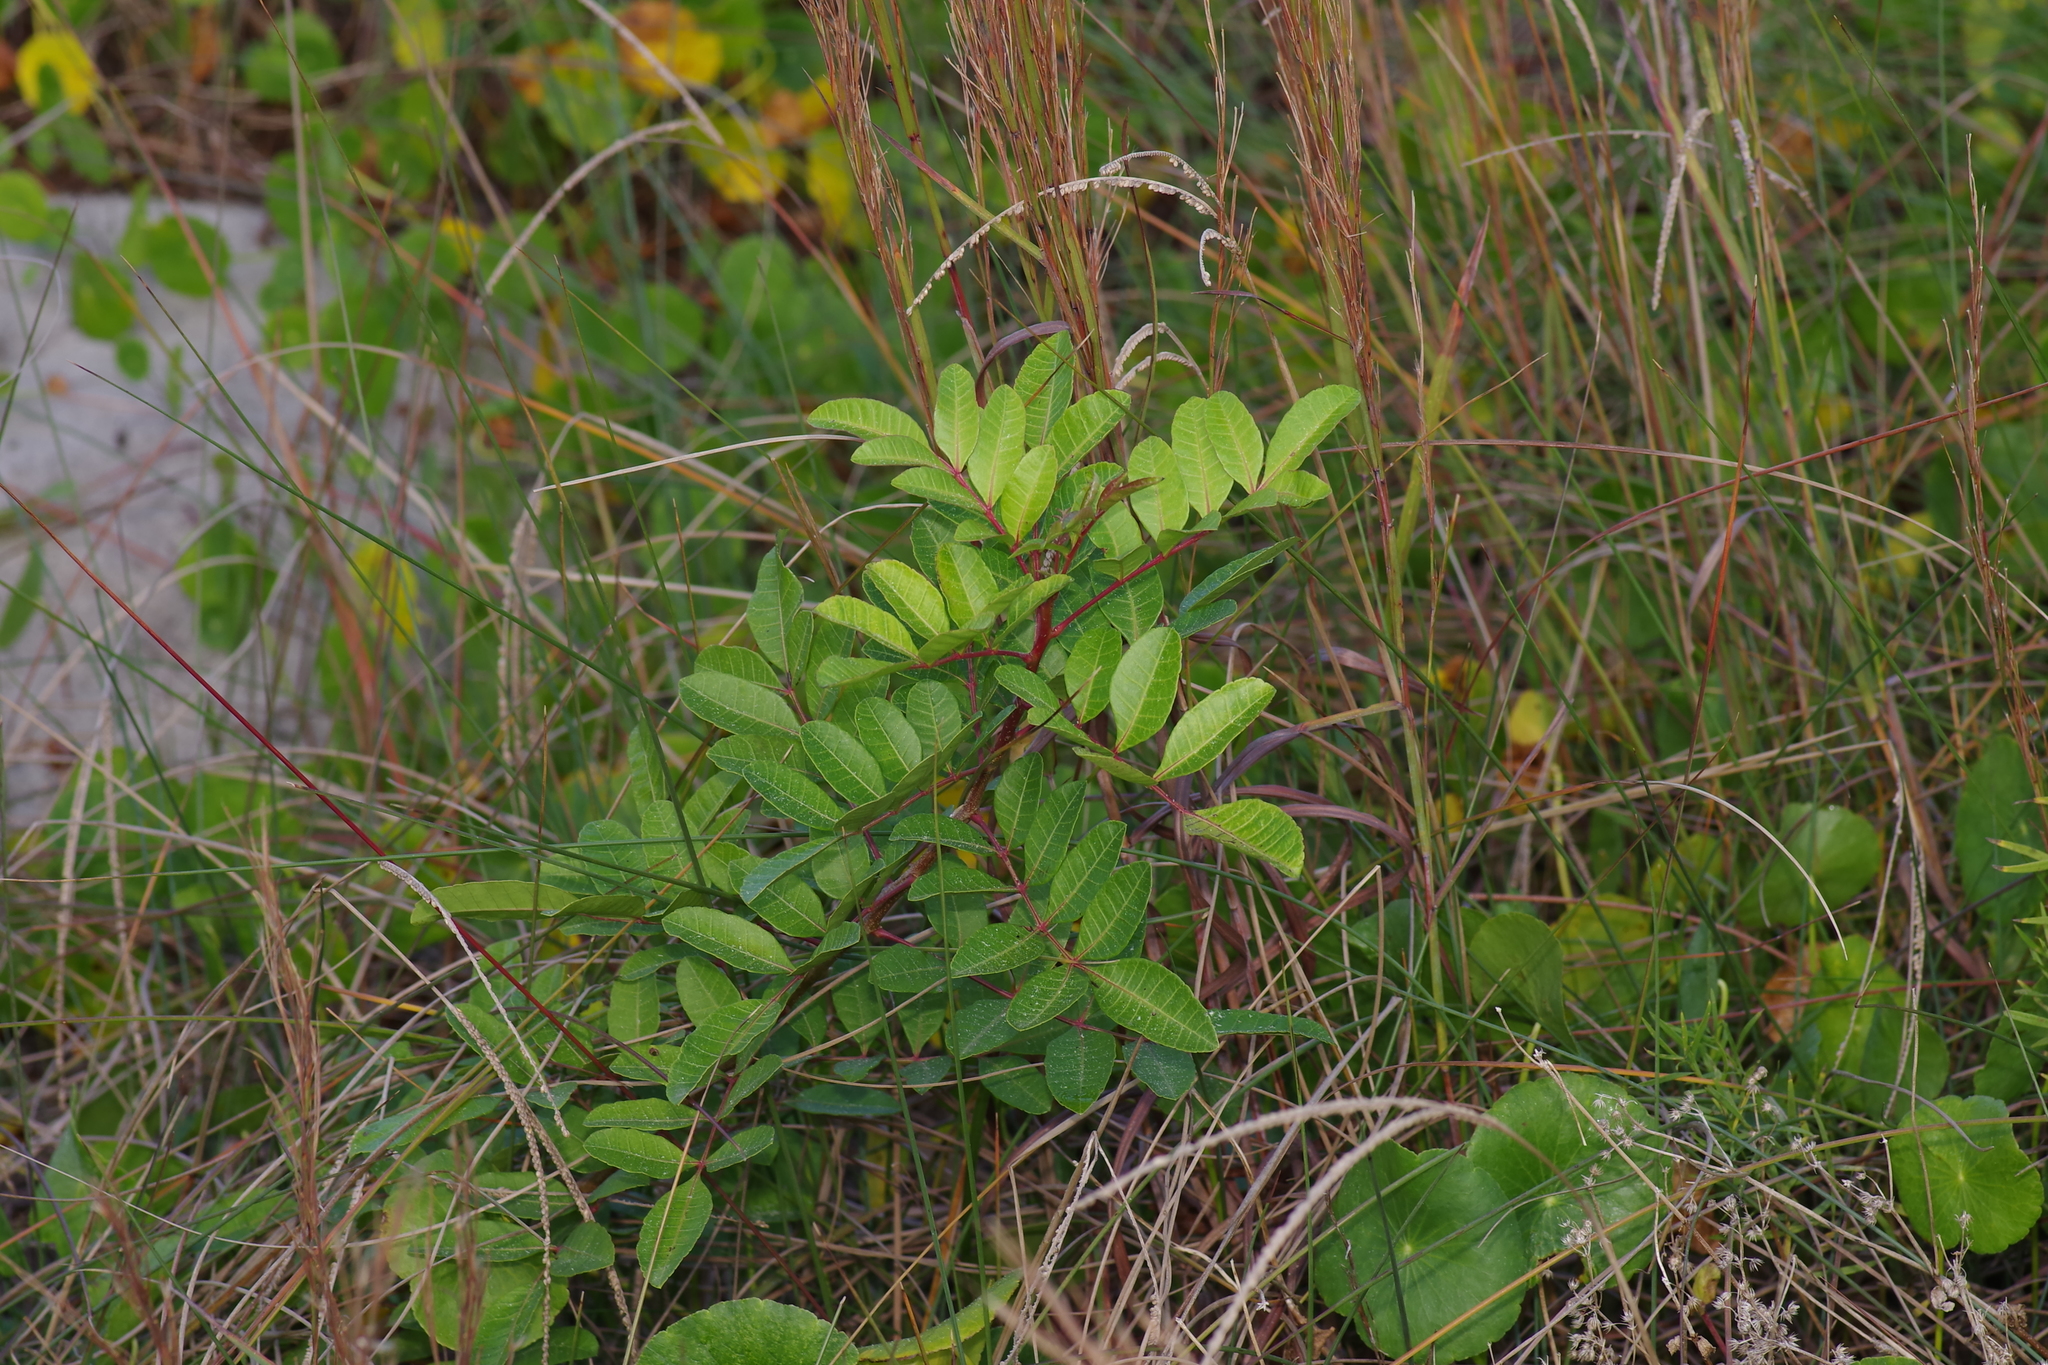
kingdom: Plantae
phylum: Tracheophyta
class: Magnoliopsida
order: Sapindales
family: Anacardiaceae
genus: Schinus
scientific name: Schinus terebinthifolia
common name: Brazilian peppertree
